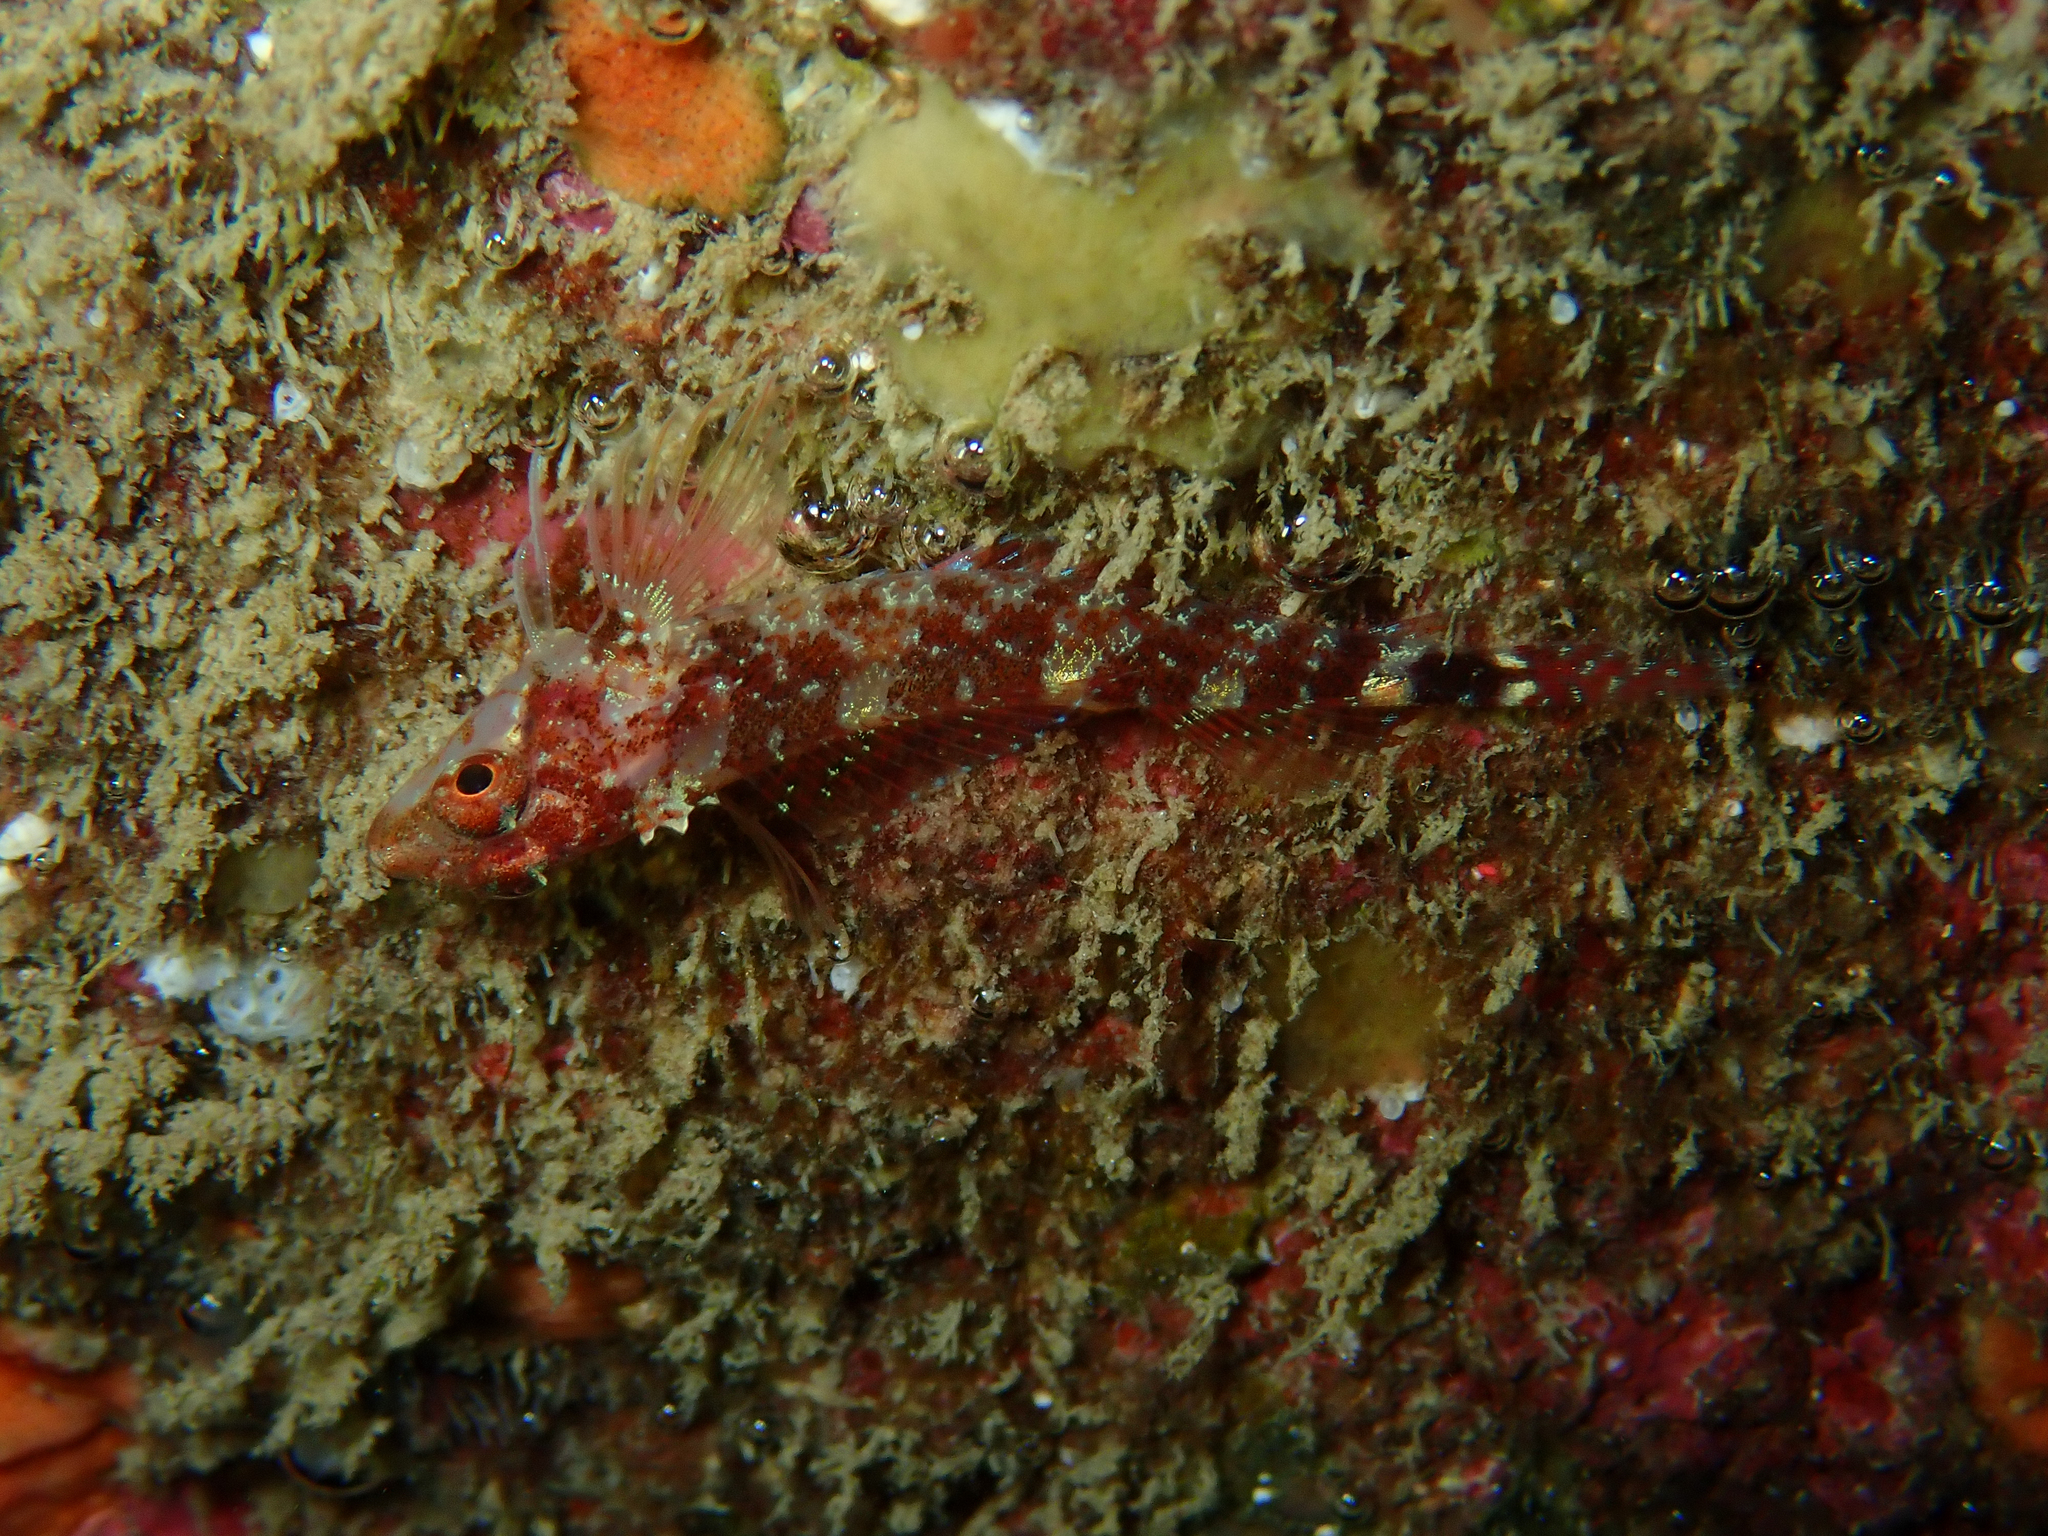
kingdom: Animalia
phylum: Chordata
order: Perciformes
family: Tripterygiidae
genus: Tripterygion
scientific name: Tripterygion delaisi
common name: Black-face blenny
